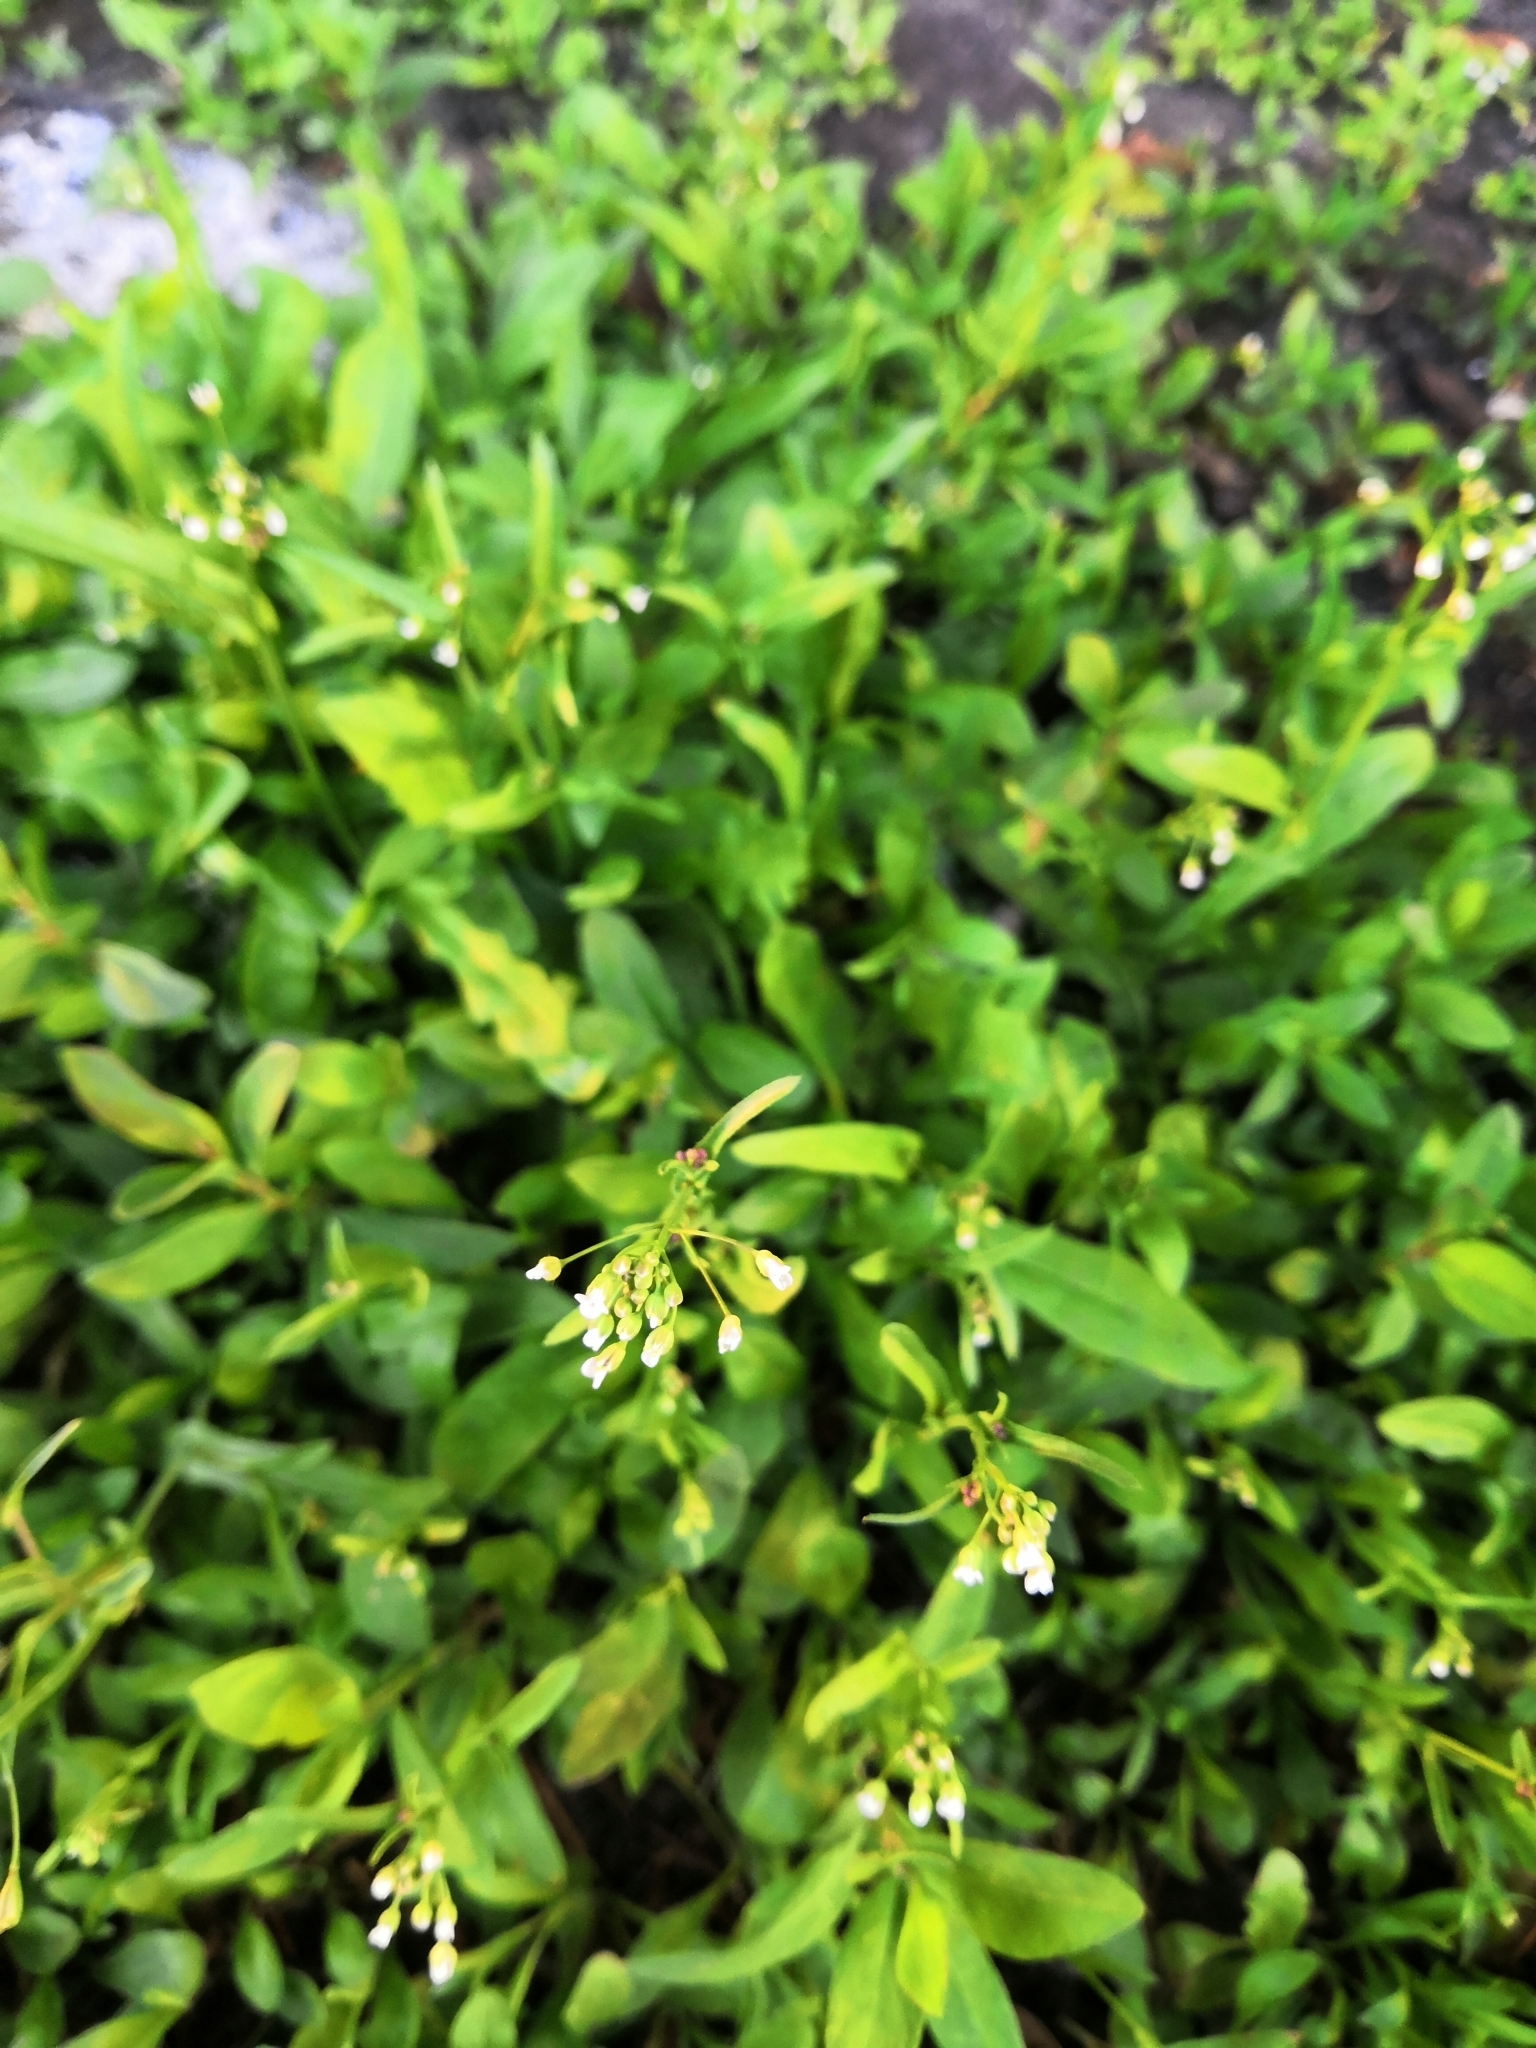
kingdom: Plantae
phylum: Tracheophyta
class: Magnoliopsida
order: Brassicales
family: Brassicaceae
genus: Capsella
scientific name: Capsella bursa-pastoris
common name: Shepherd's purse
